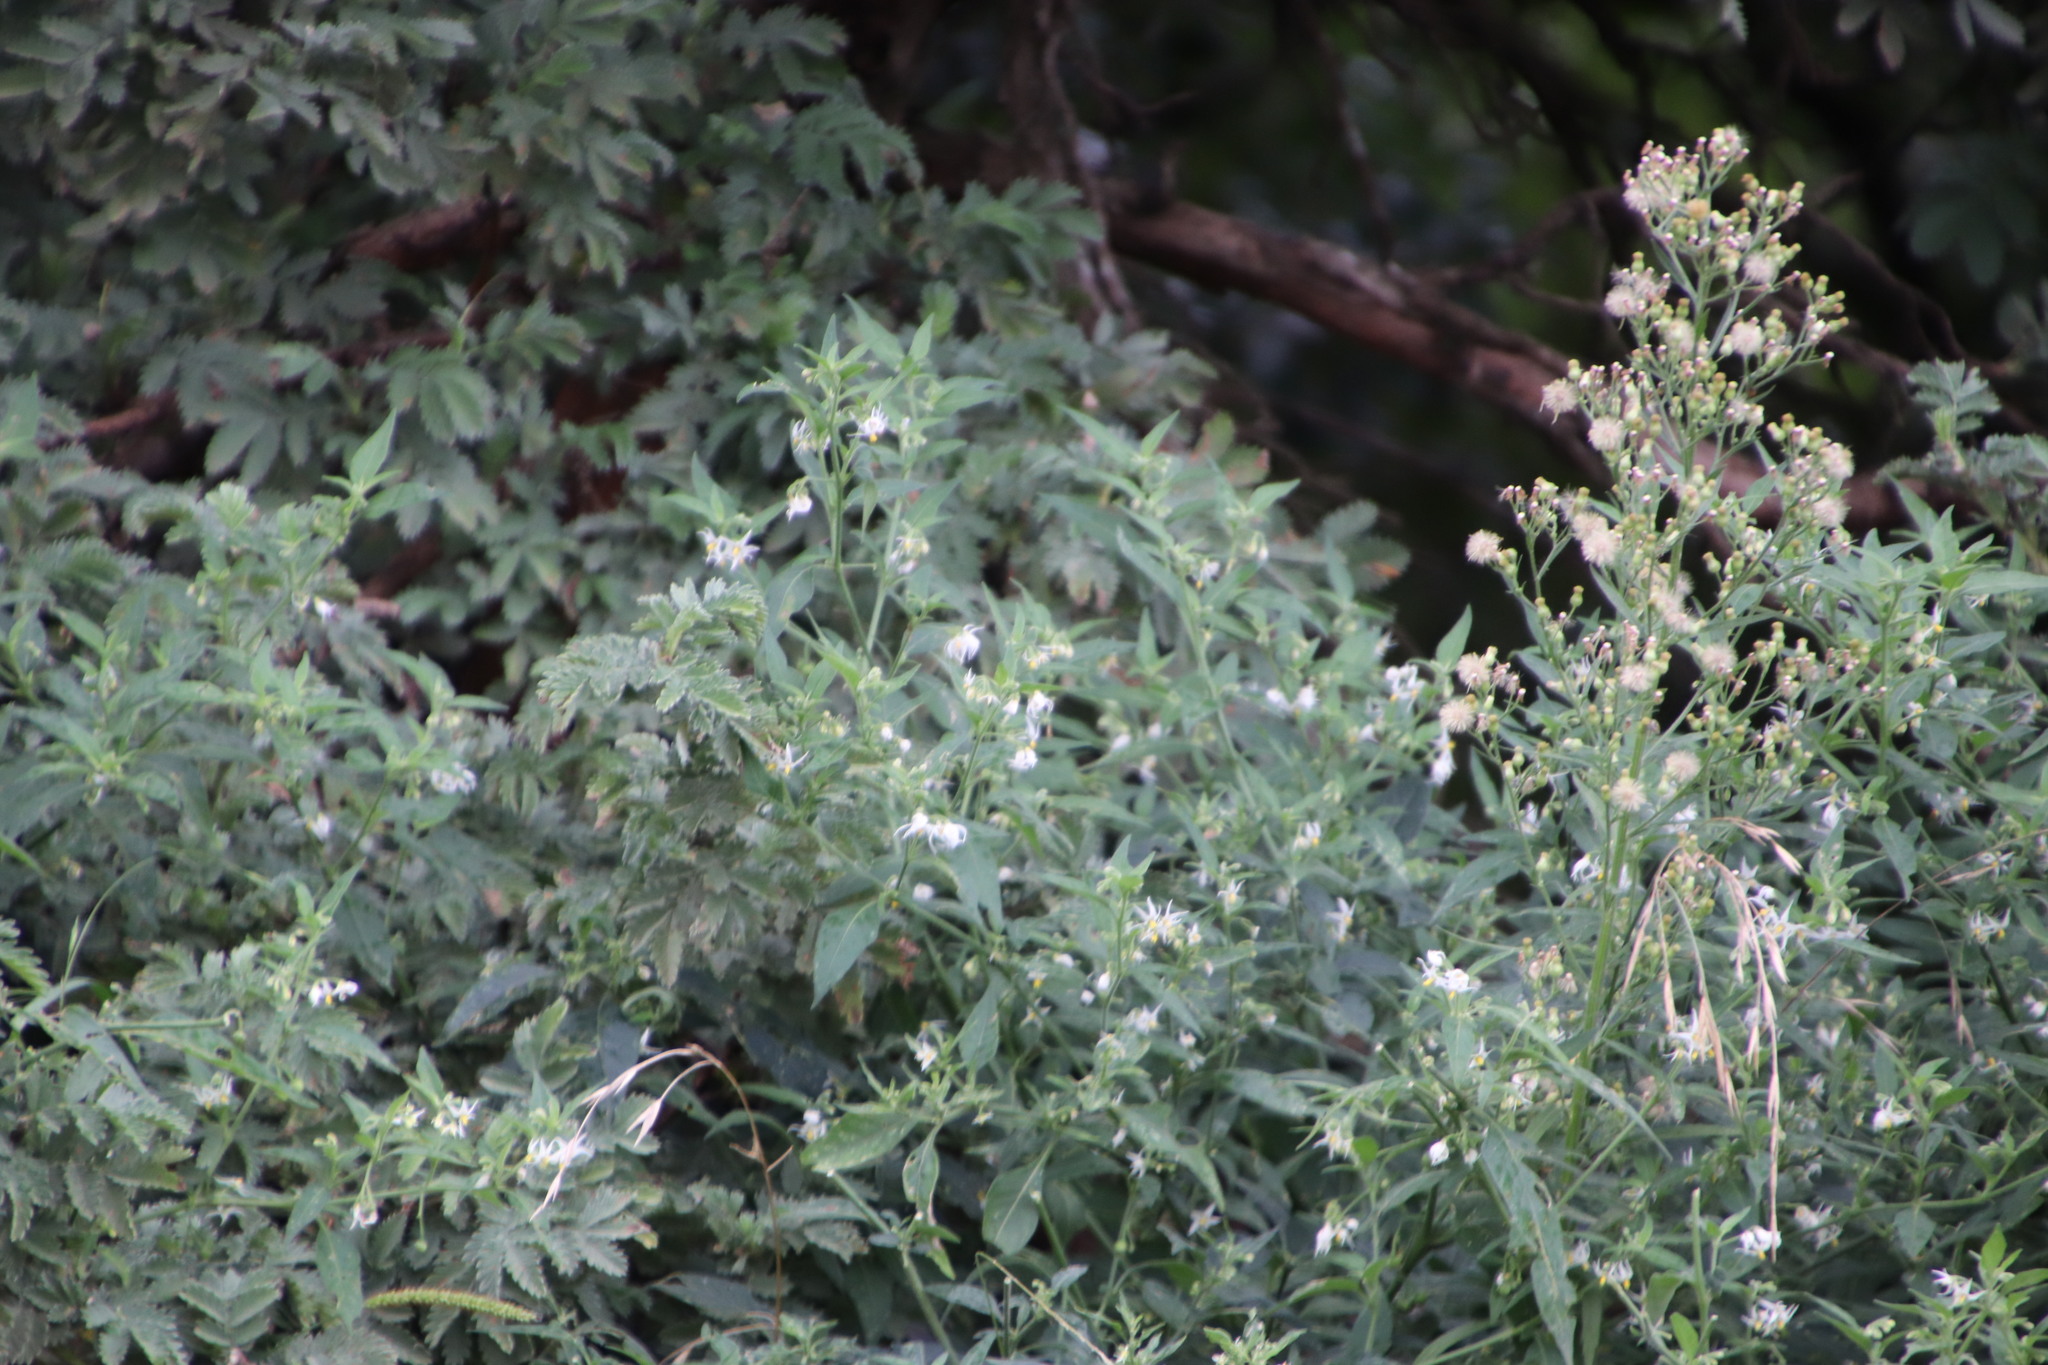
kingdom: Plantae
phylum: Tracheophyta
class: Magnoliopsida
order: Asterales
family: Asteraceae
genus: Erigeron
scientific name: Erigeron sumatrensis
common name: Daisy
